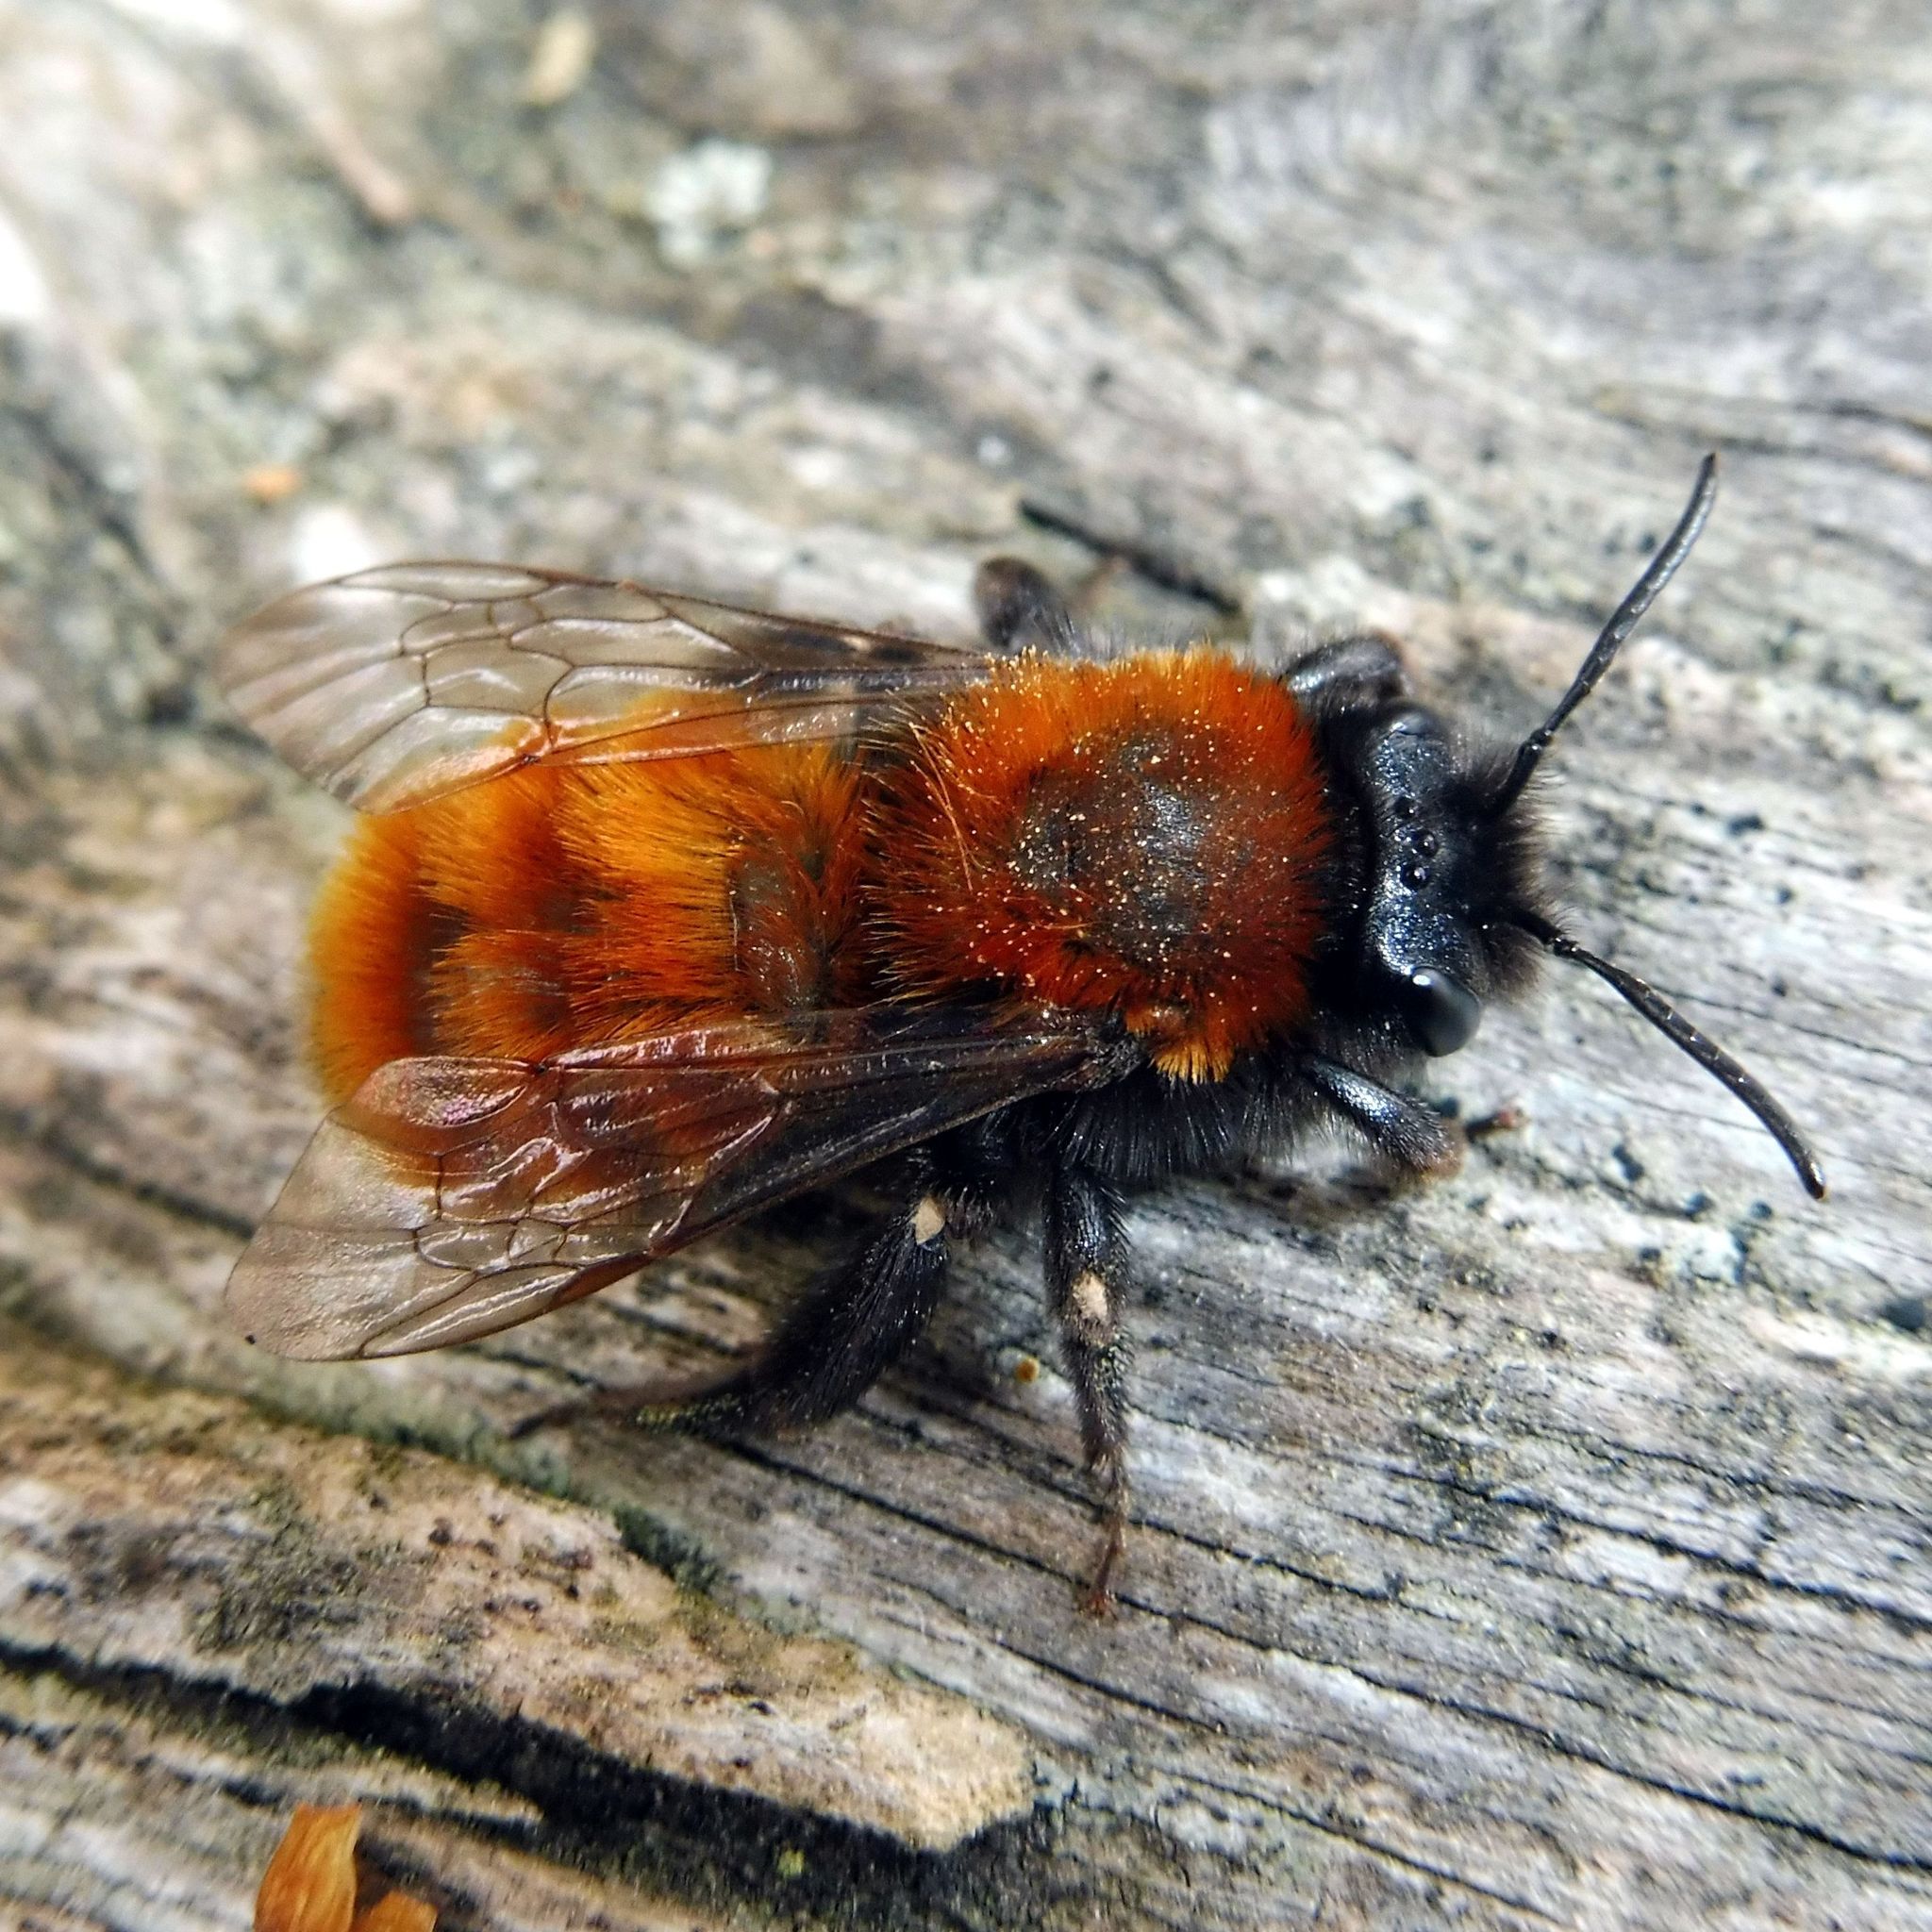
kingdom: Animalia
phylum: Arthropoda
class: Insecta
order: Hymenoptera
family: Andrenidae
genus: Andrena
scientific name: Andrena fulva
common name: Tawny mining bee
